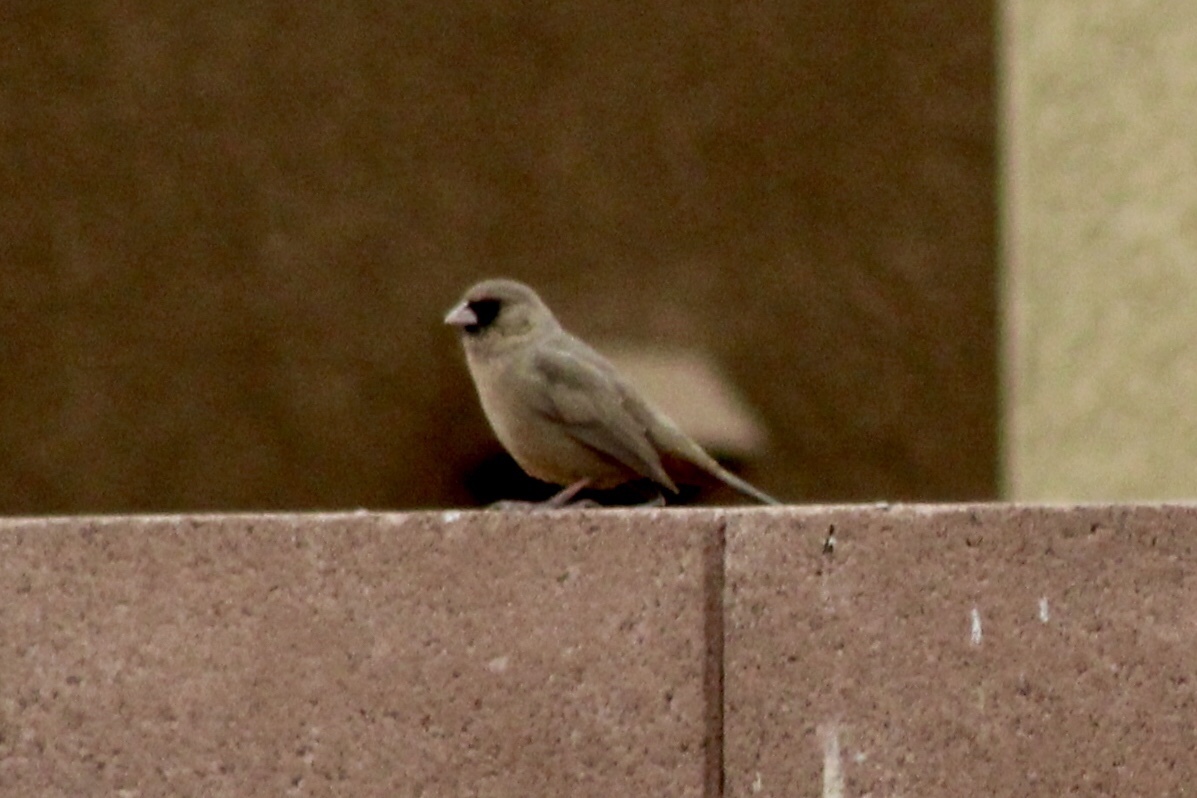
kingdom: Animalia
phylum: Chordata
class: Aves
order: Passeriformes
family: Passerellidae
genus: Melozone
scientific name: Melozone aberti
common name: Abert's towhee
